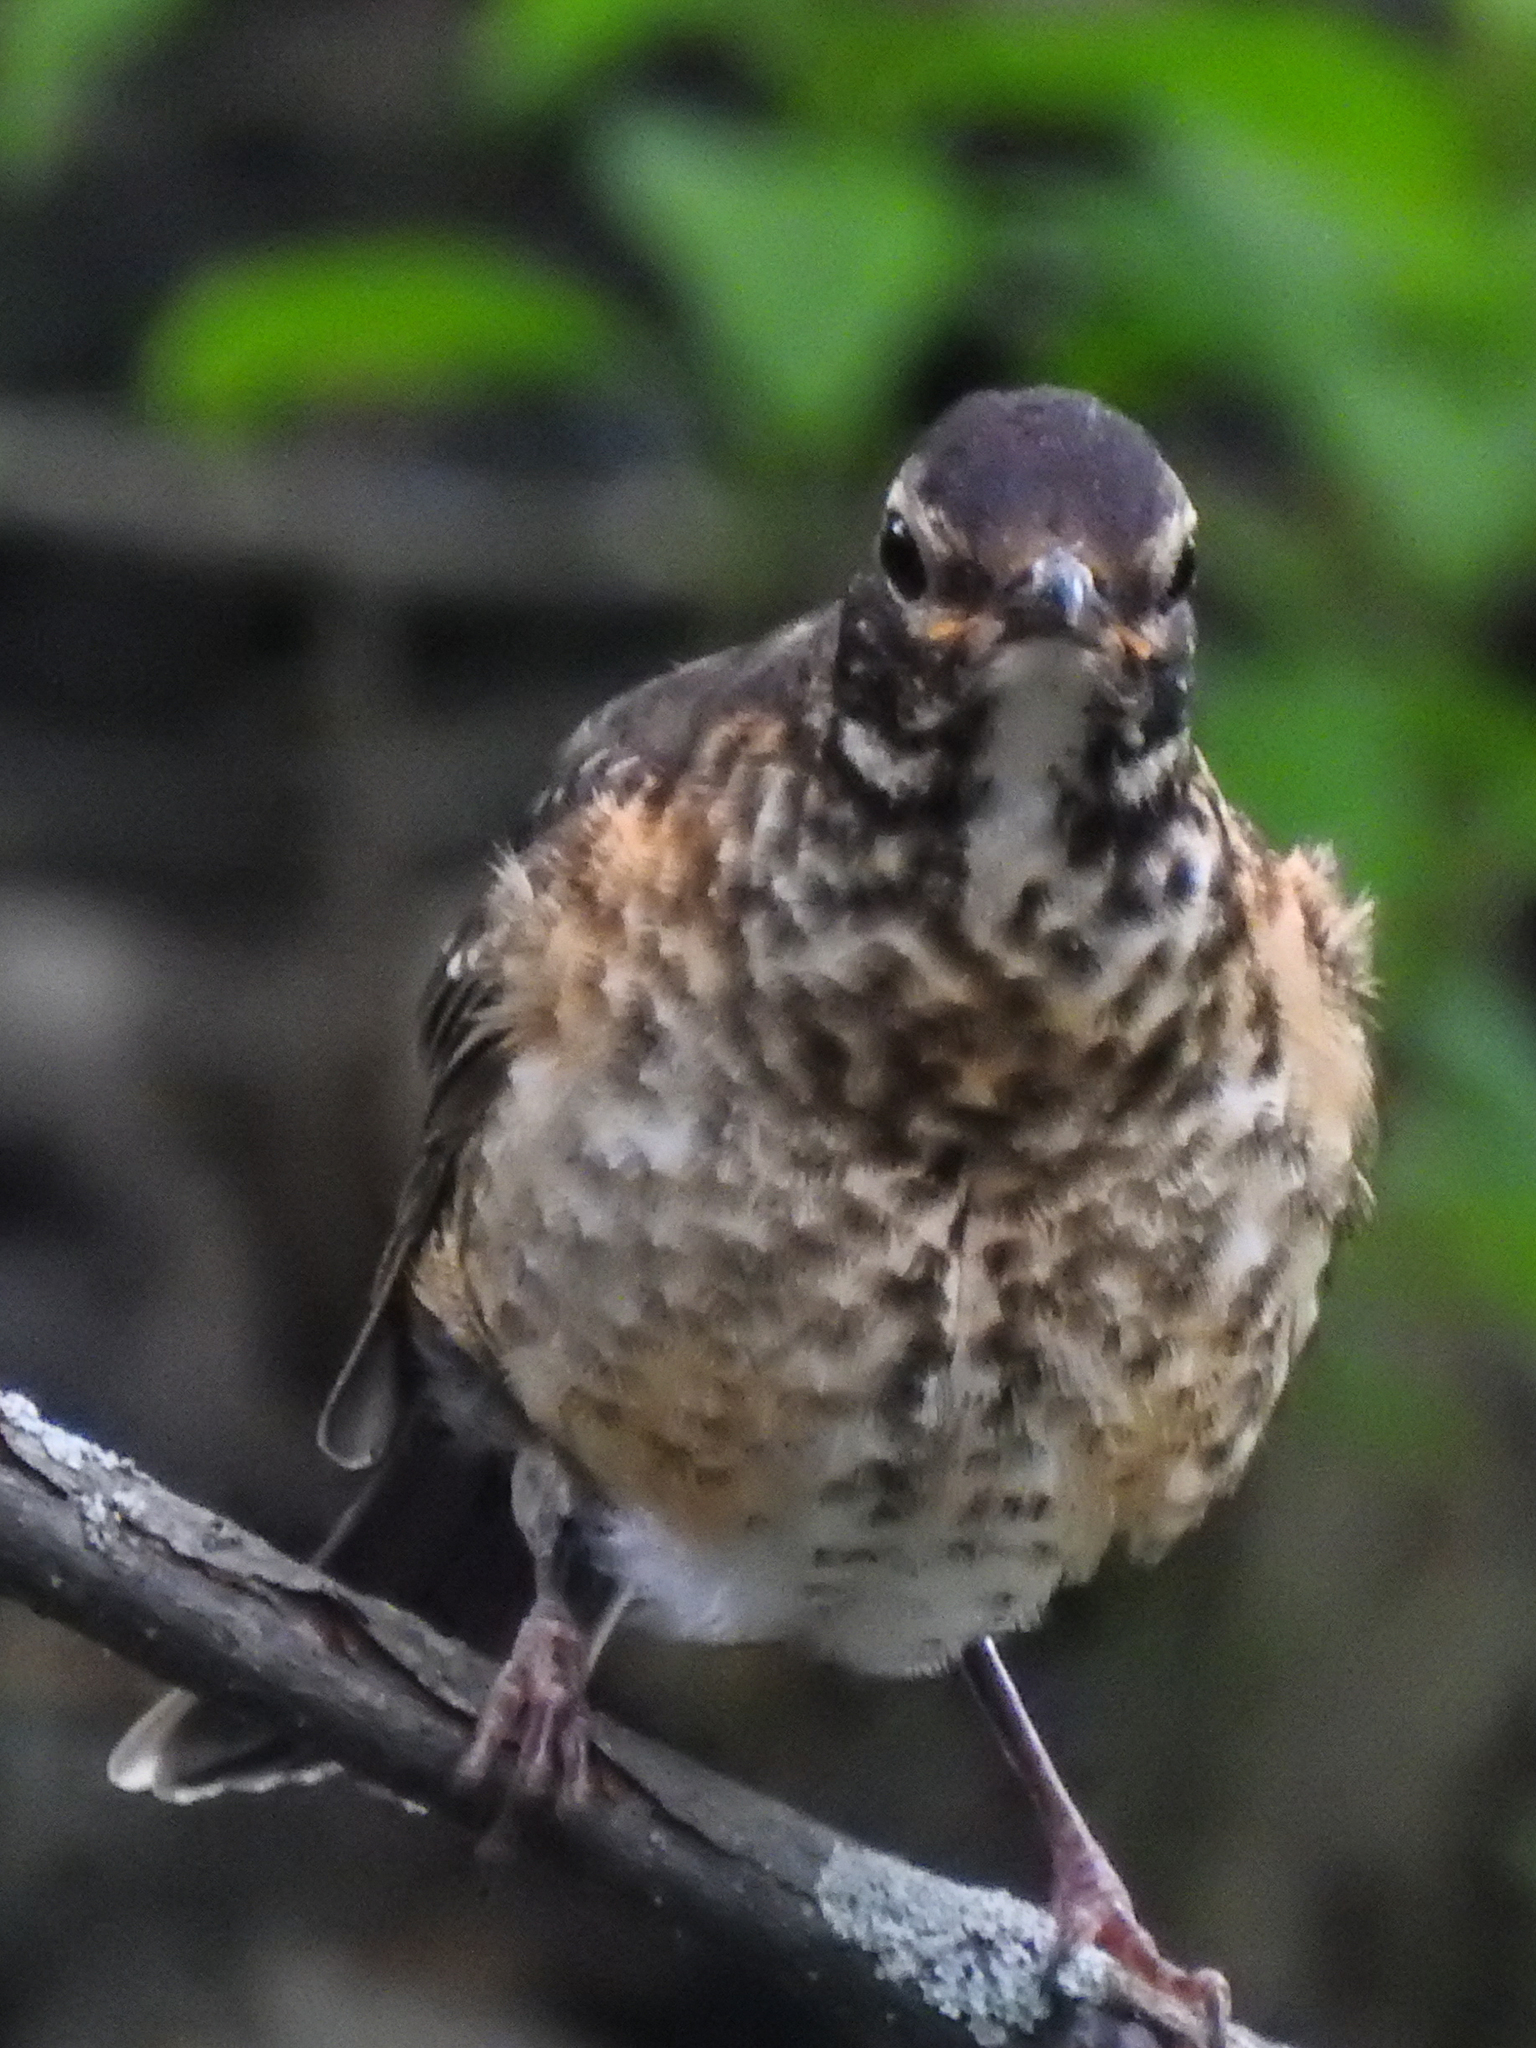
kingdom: Animalia
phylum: Chordata
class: Aves
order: Passeriformes
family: Turdidae
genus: Turdus
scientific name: Turdus migratorius
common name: American robin
